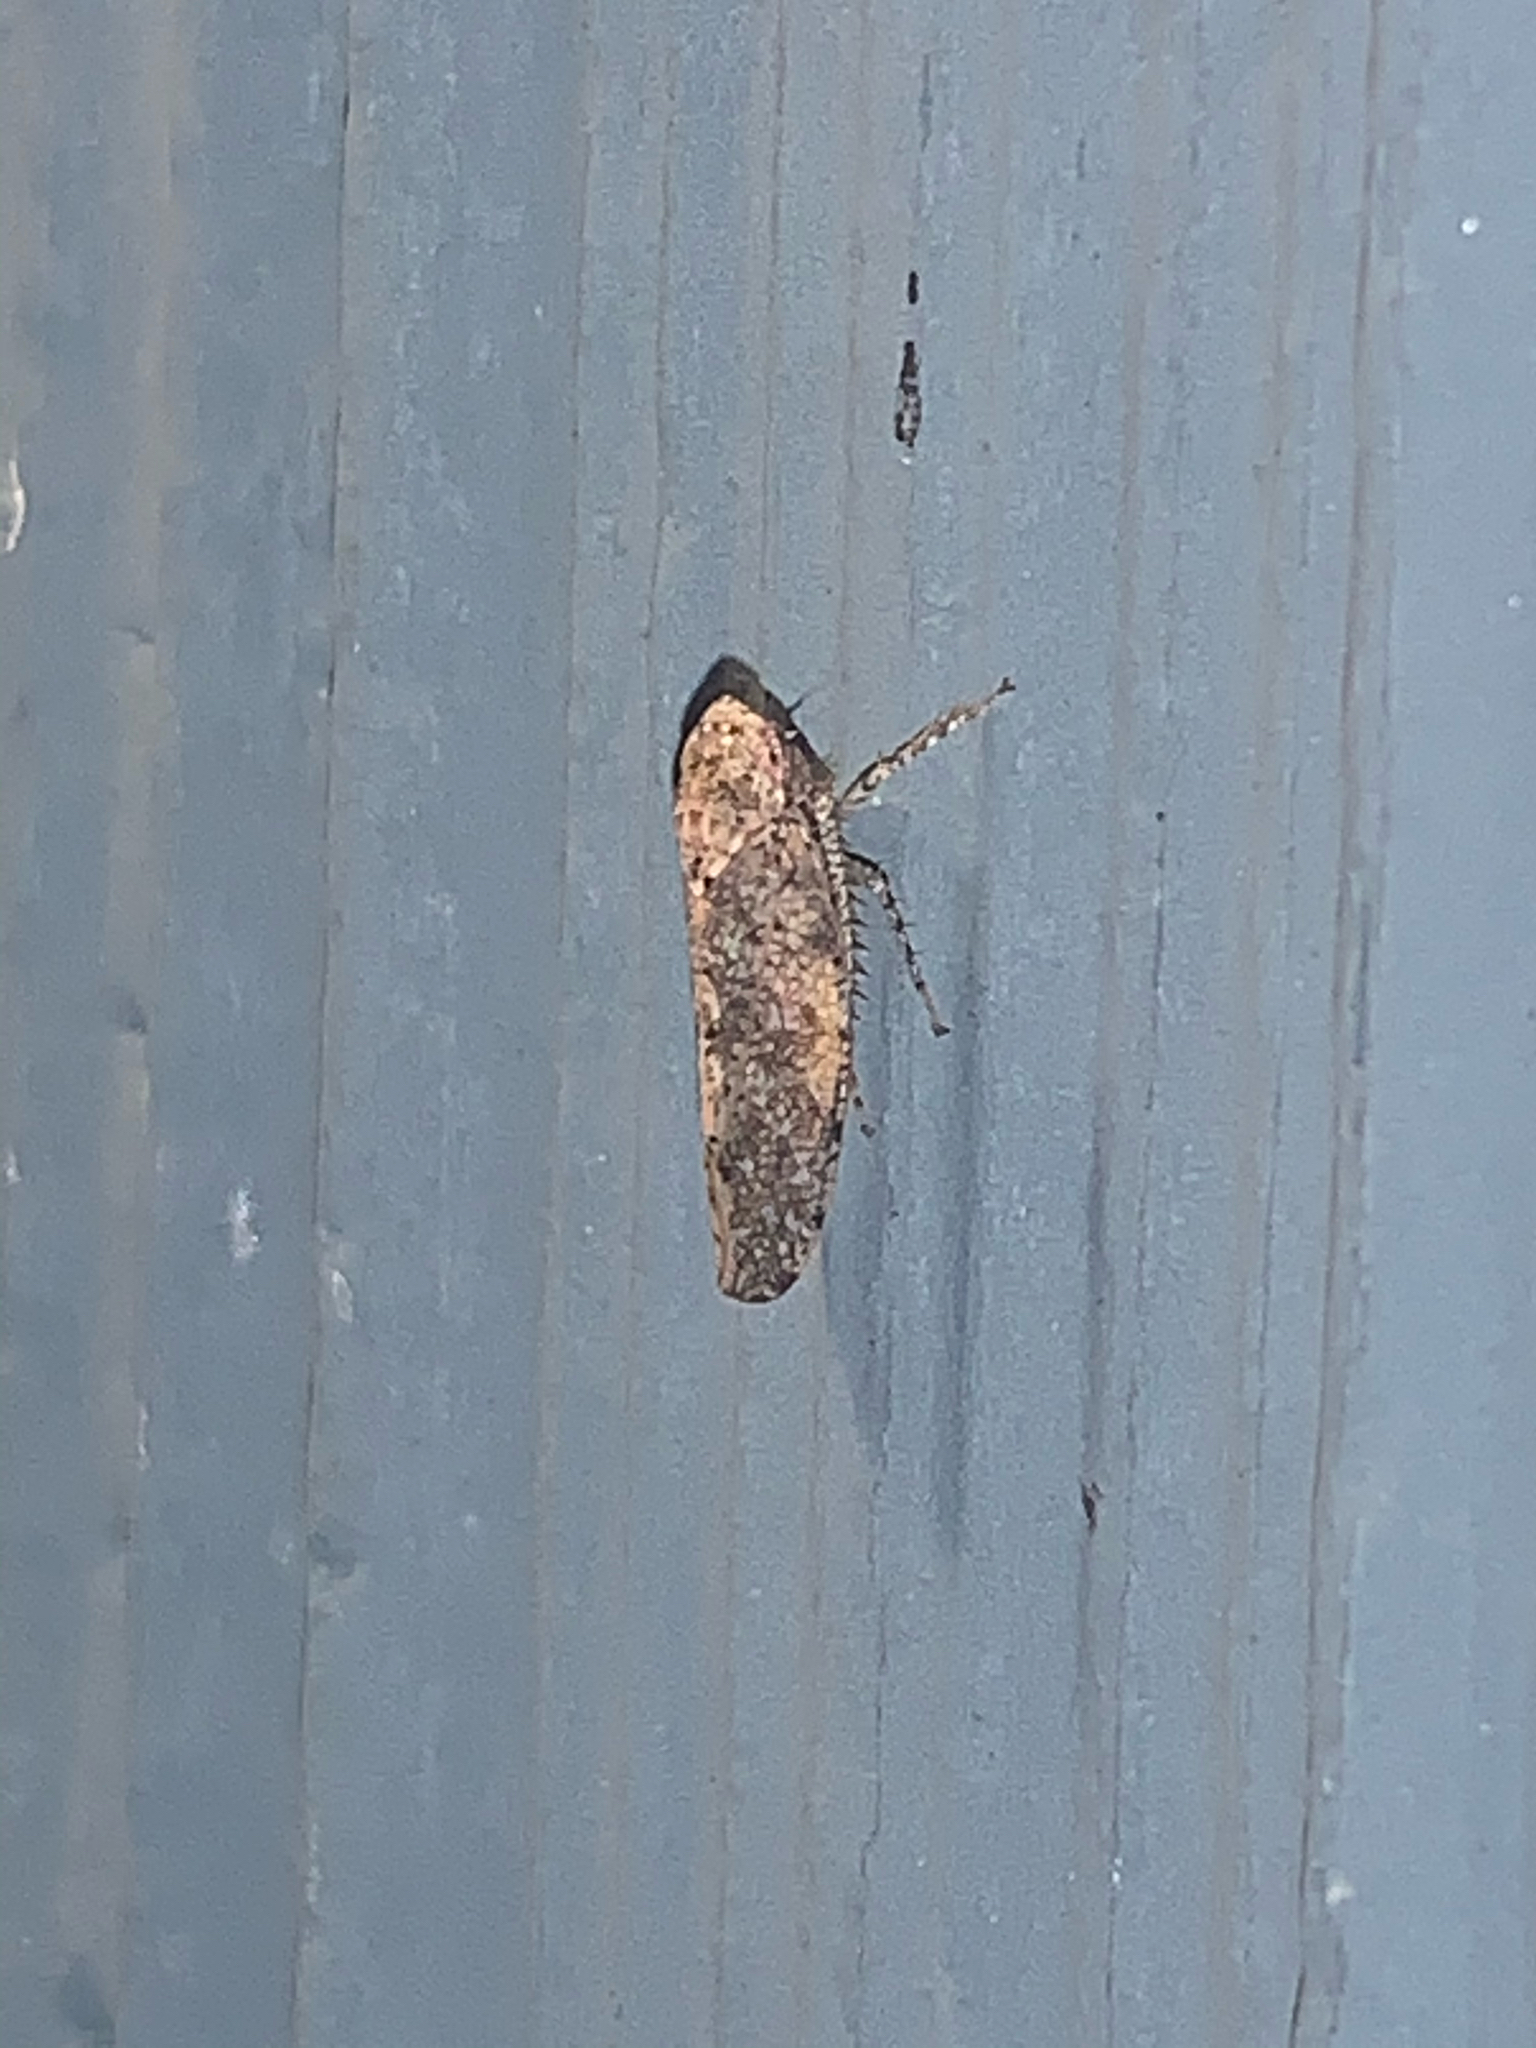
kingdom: Animalia
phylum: Arthropoda
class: Insecta
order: Hemiptera
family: Cicadellidae
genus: Paraphlepsius
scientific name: Paraphlepsius
